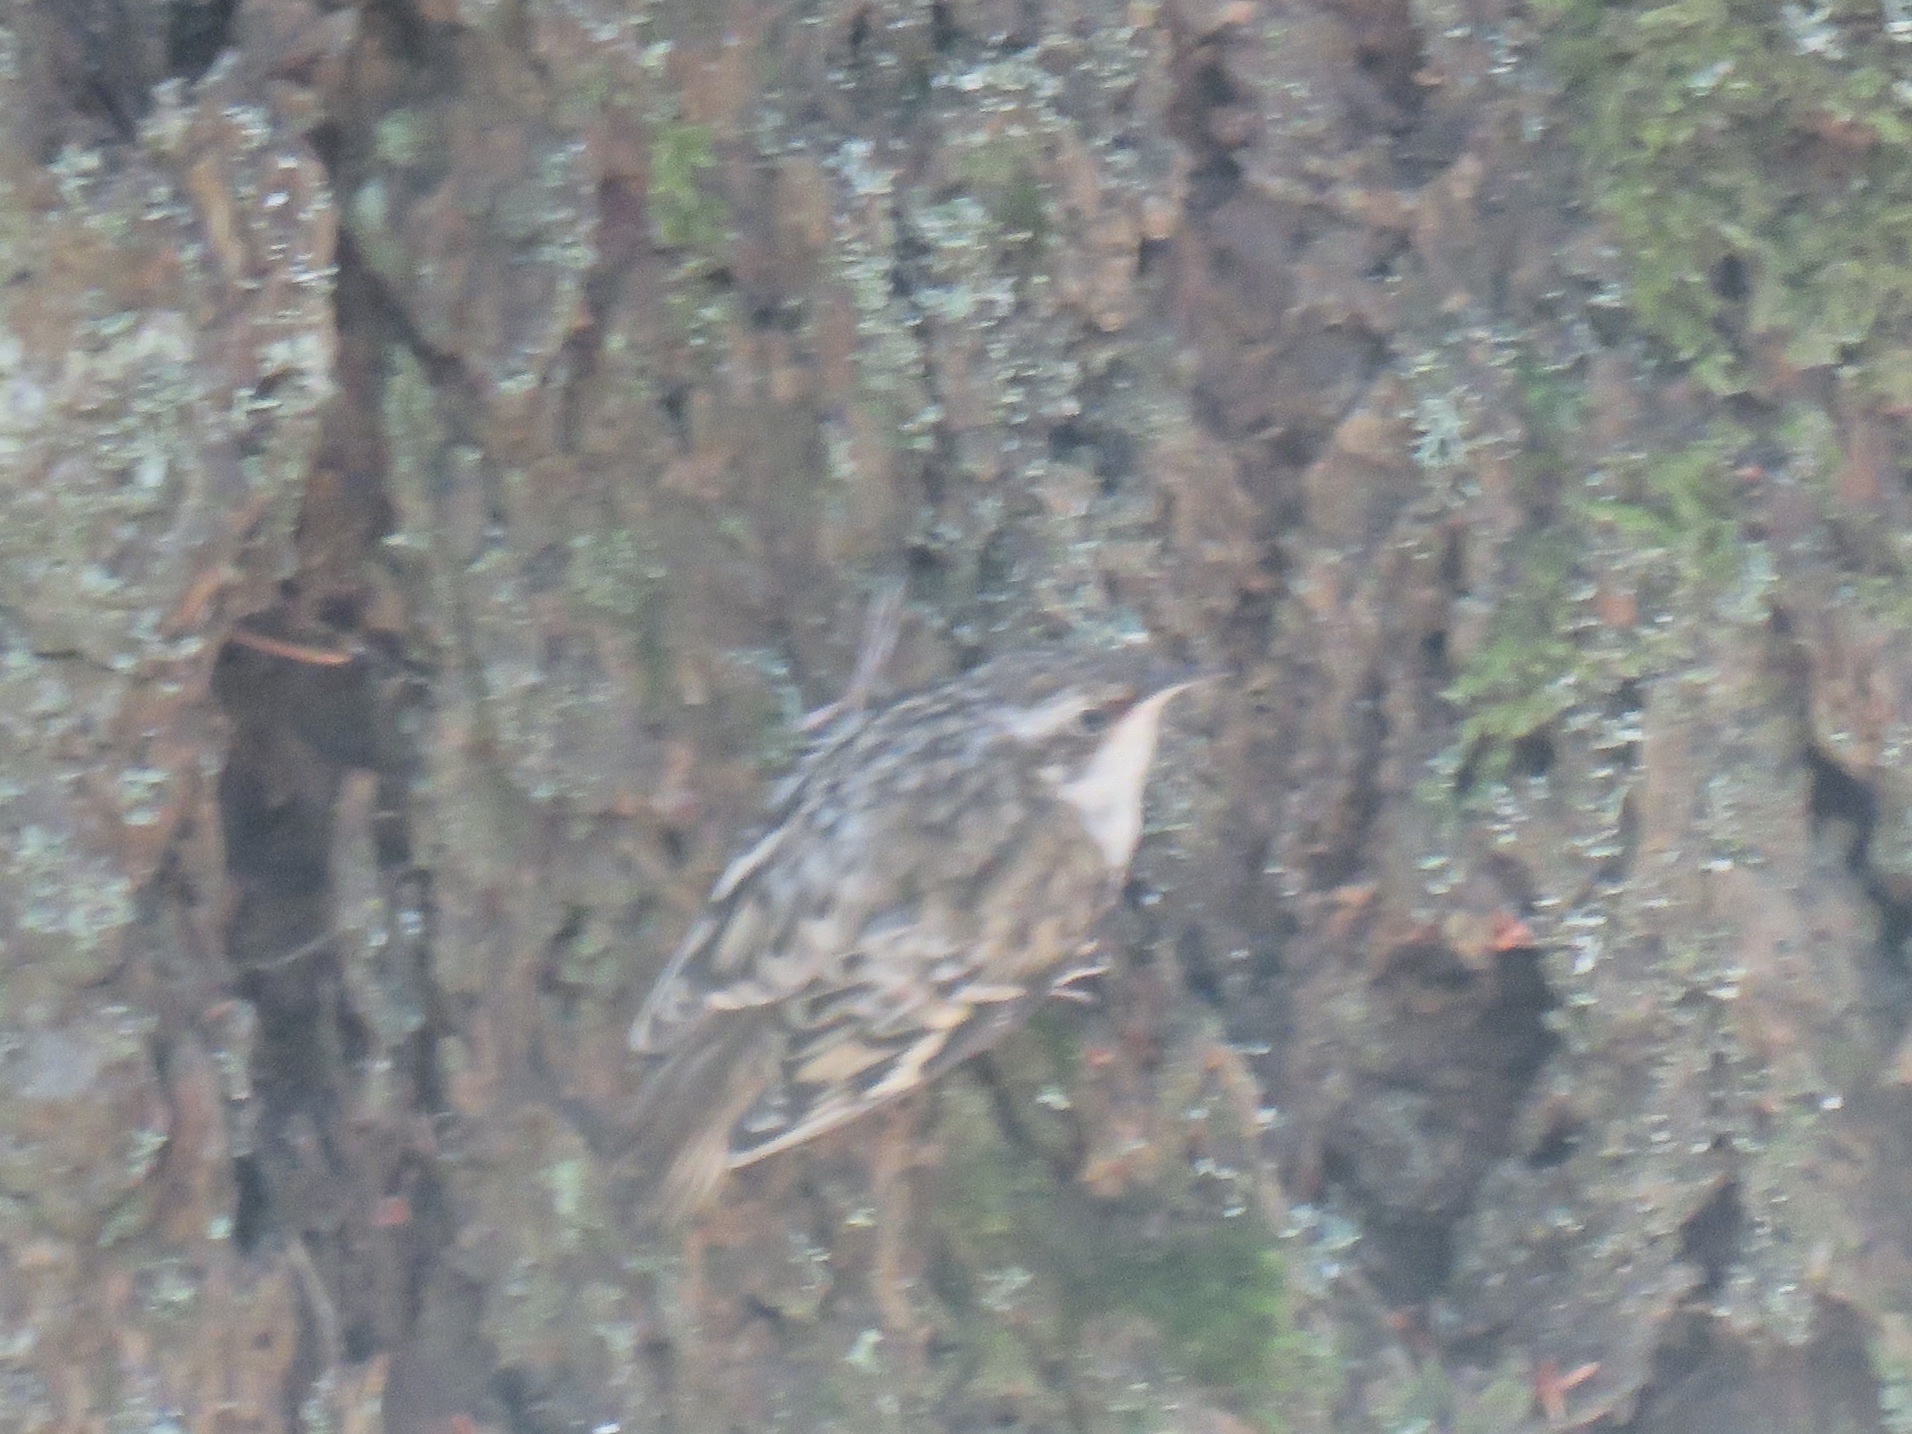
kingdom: Animalia
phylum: Chordata
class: Aves
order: Passeriformes
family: Certhiidae
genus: Certhia
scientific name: Certhia americana
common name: Brown creeper
